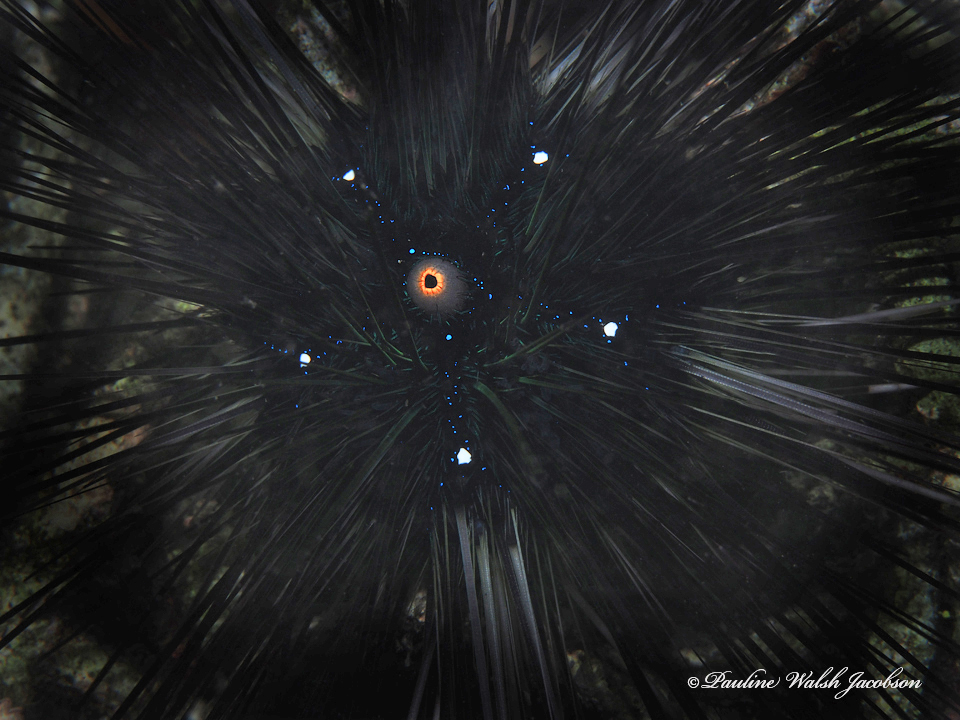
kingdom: Animalia
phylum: Echinodermata
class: Echinoidea
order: Diadematoida
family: Diadematidae
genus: Diadema
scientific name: Diadema setosum
